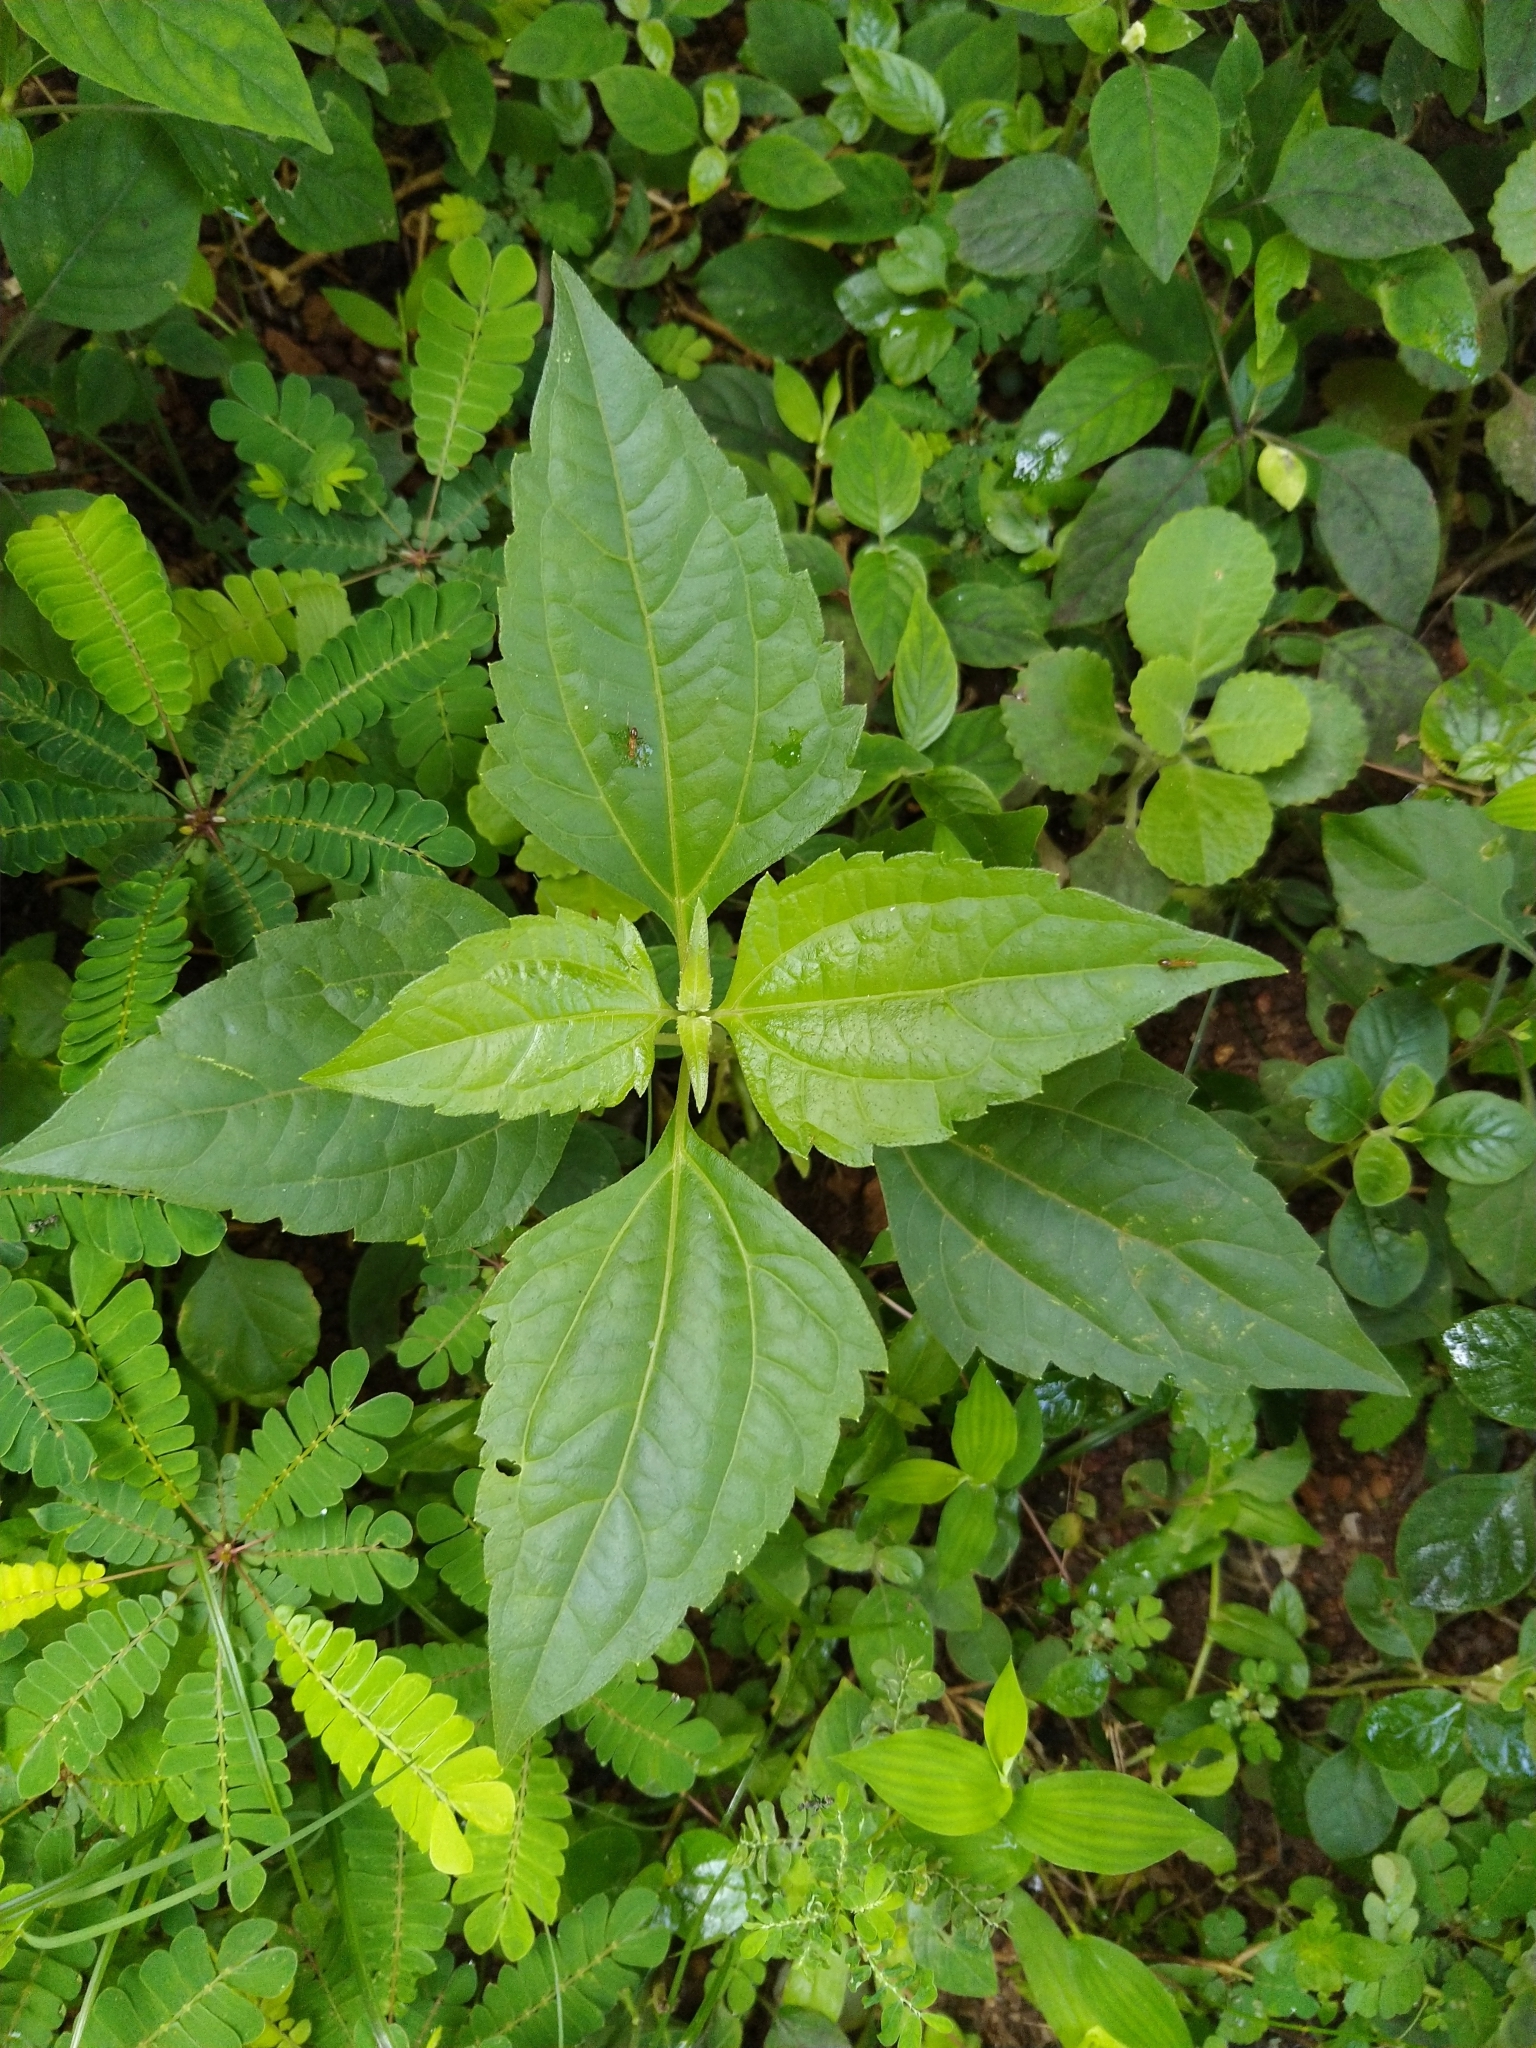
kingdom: Plantae
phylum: Tracheophyta
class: Magnoliopsida
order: Asterales
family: Asteraceae
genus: Chromolaena
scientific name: Chromolaena odorata
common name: Siamweed
